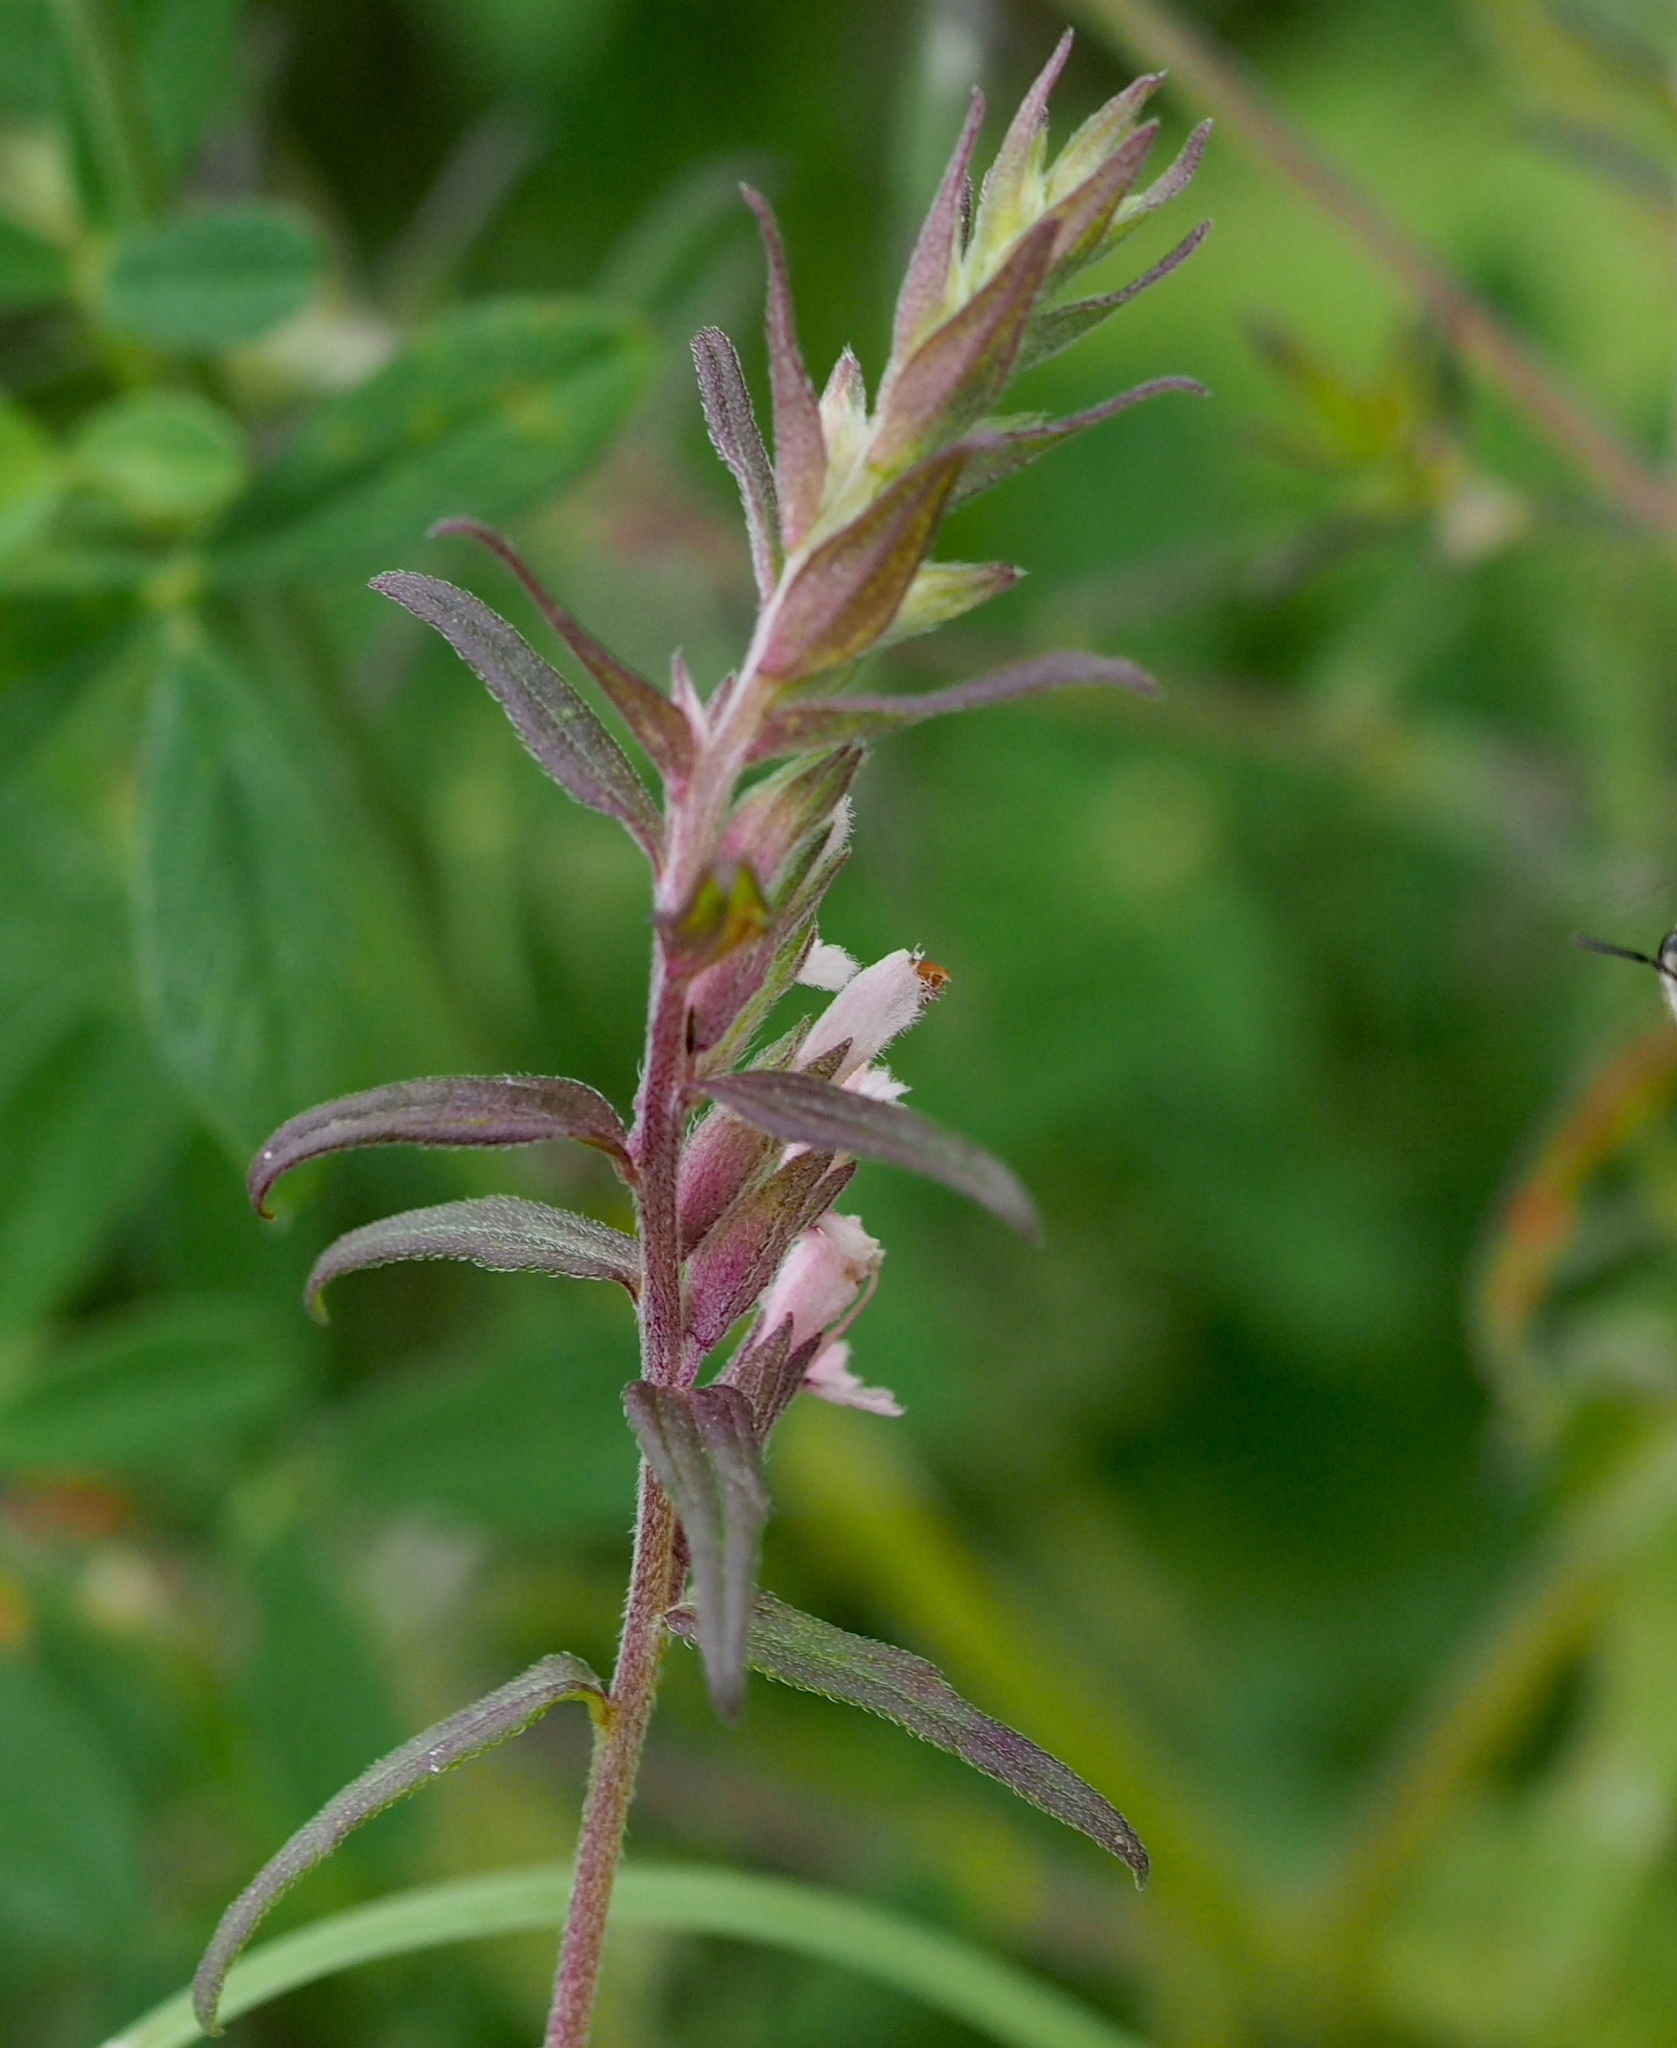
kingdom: Plantae
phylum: Tracheophyta
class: Magnoliopsida
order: Lamiales
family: Orobanchaceae
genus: Odontites
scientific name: Odontites vulgaris
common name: Broomrape
